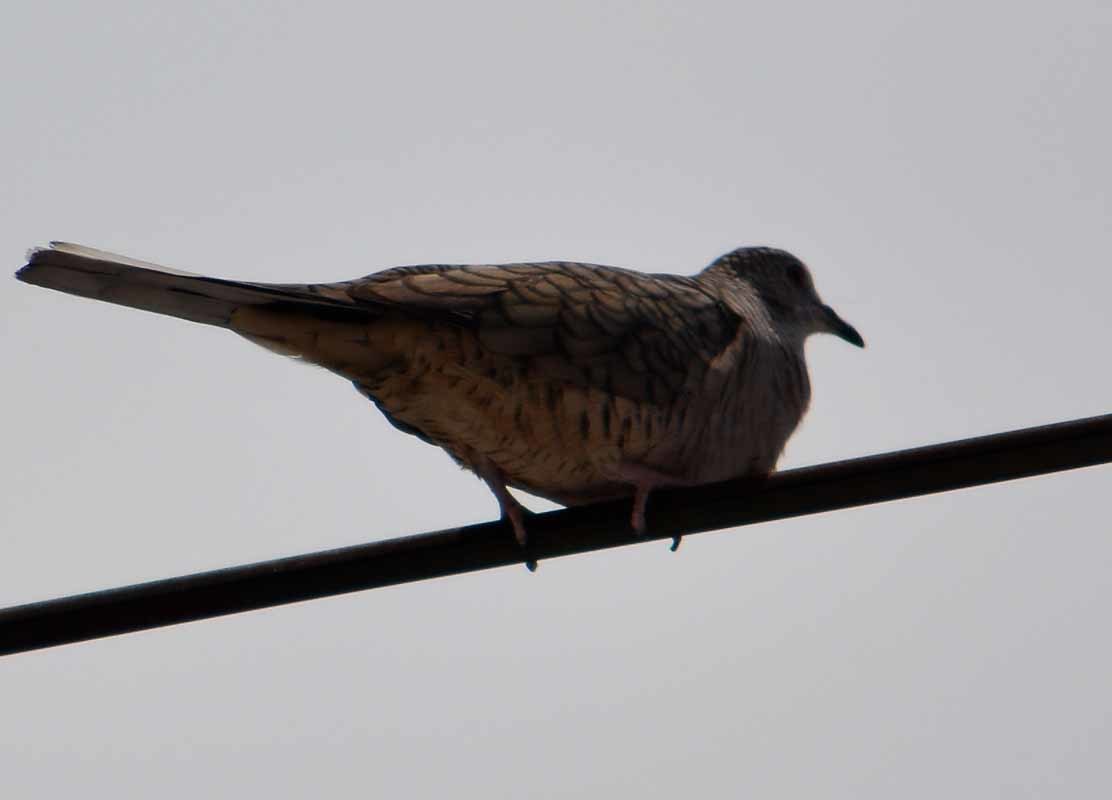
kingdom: Animalia
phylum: Chordata
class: Aves
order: Columbiformes
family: Columbidae
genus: Columbina
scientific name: Columbina inca
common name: Inca dove
